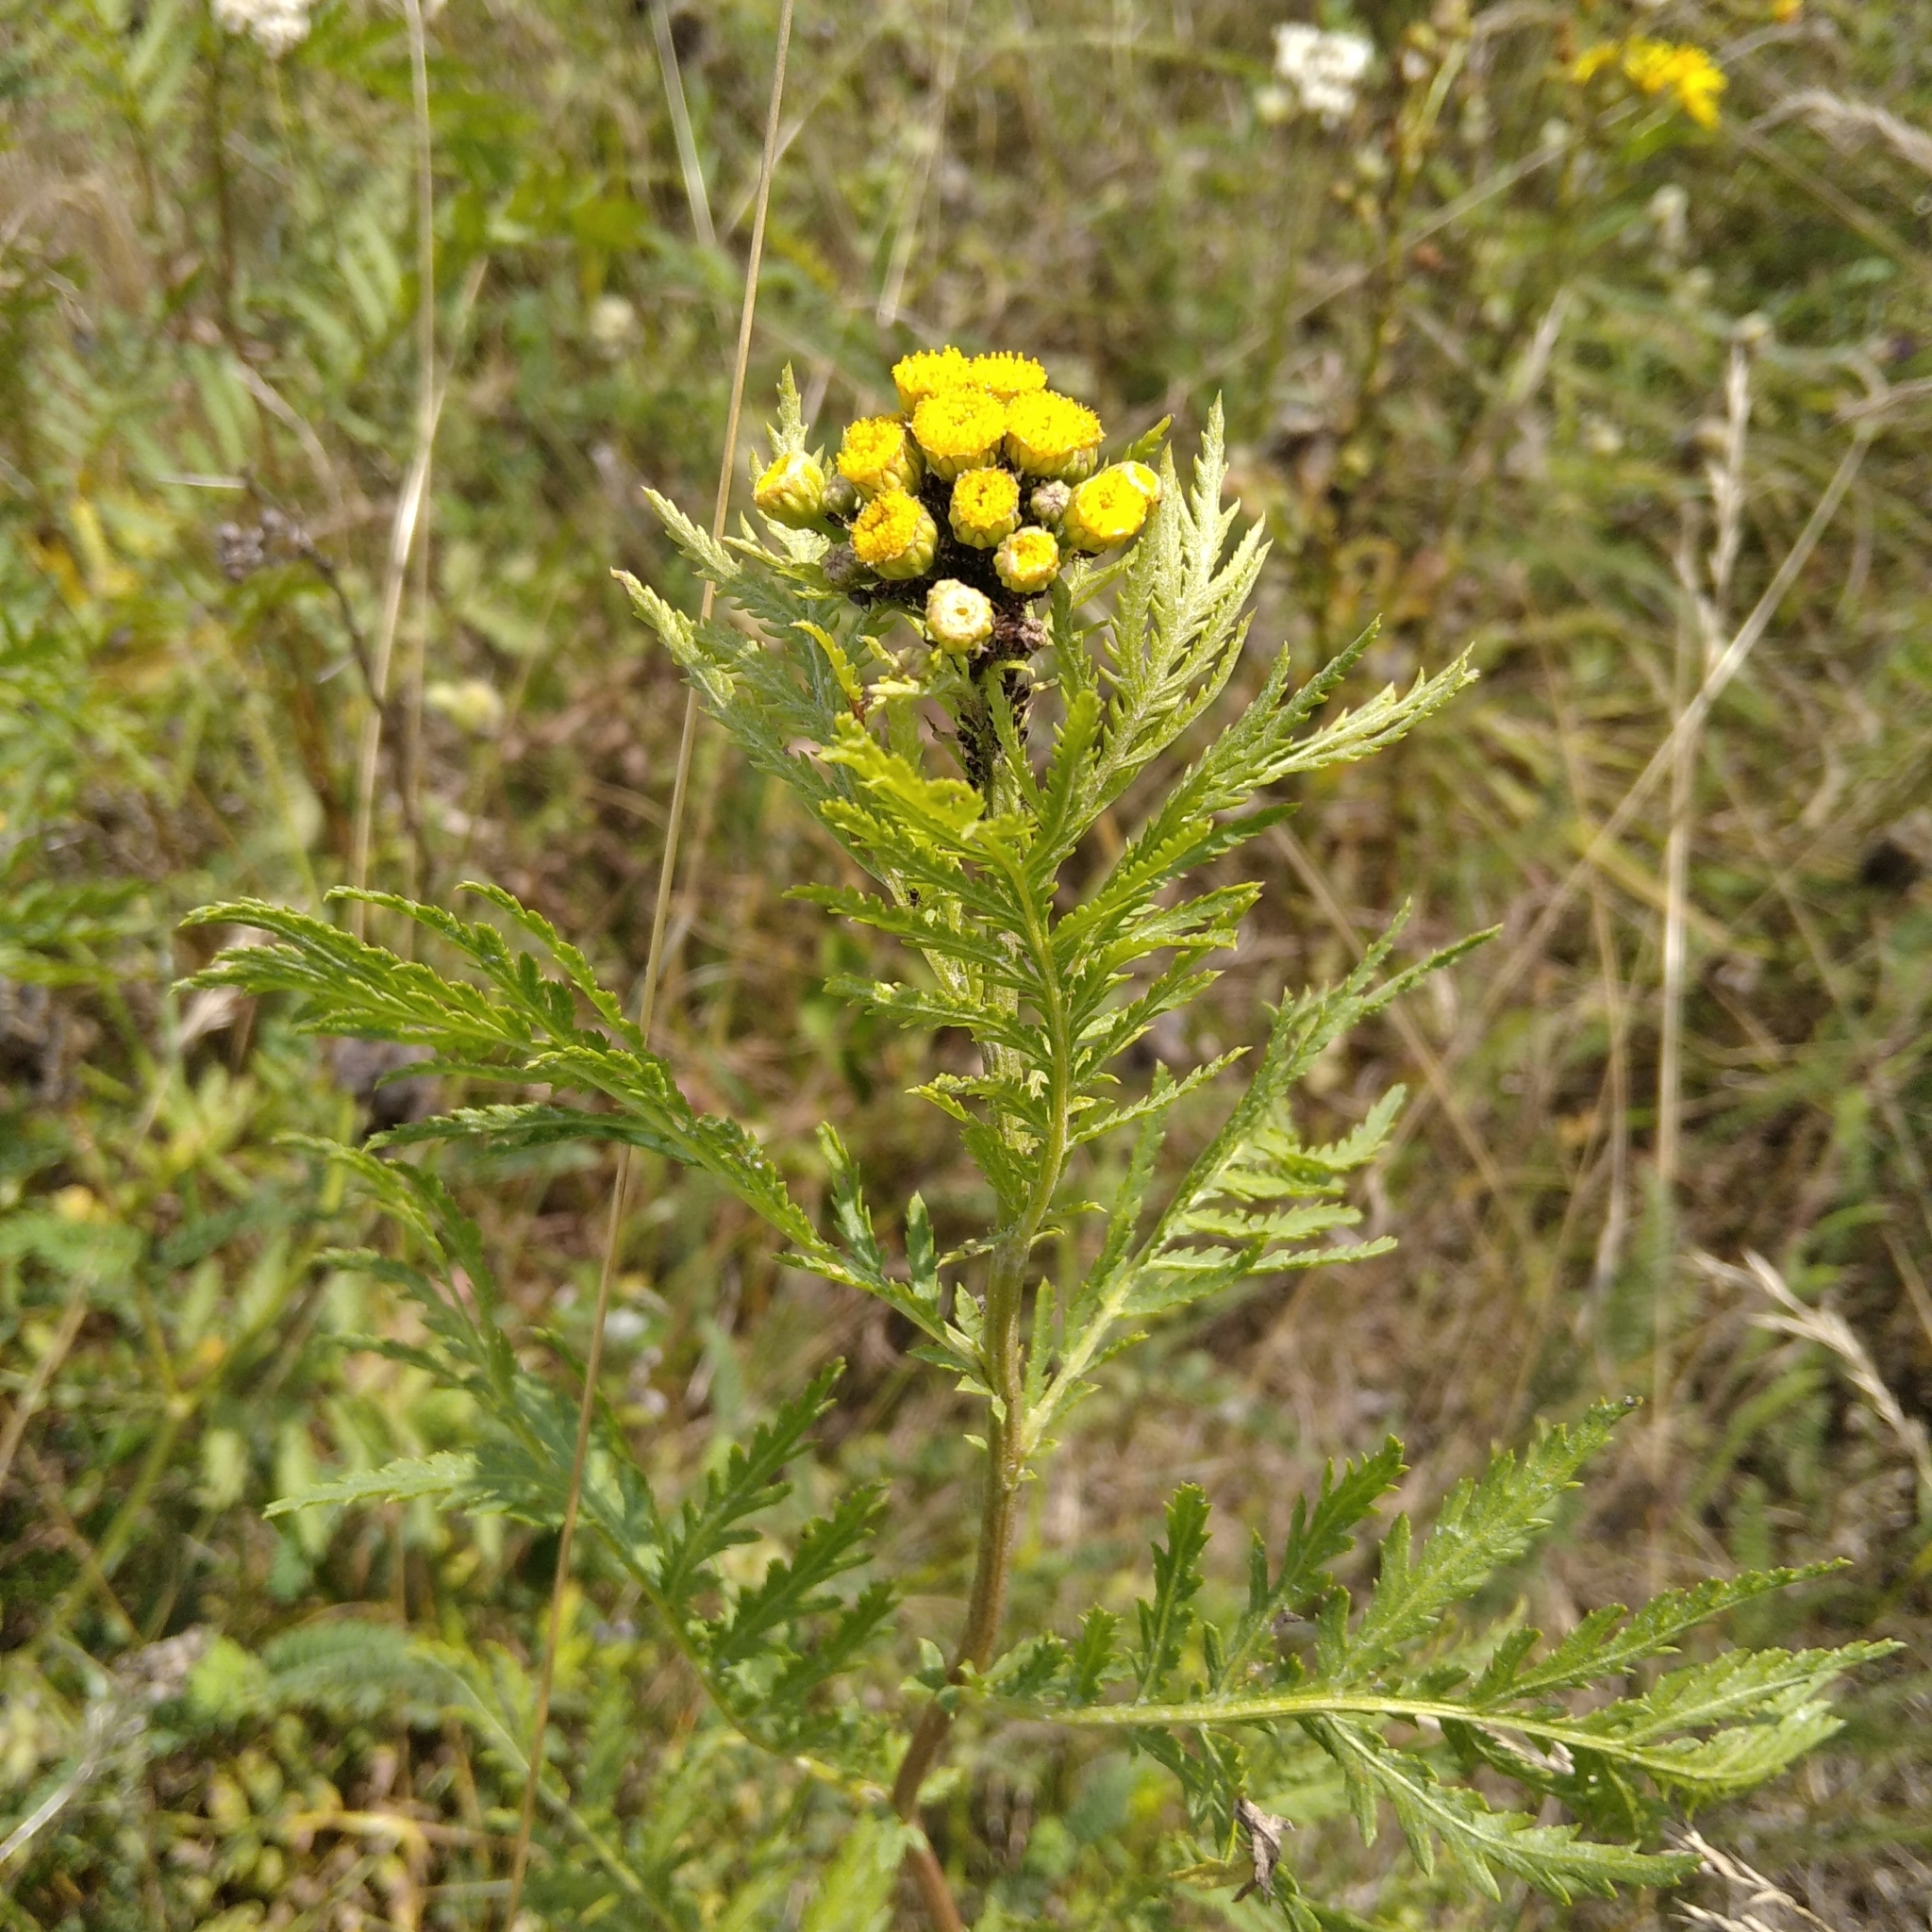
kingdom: Plantae
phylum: Tracheophyta
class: Magnoliopsida
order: Asterales
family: Asteraceae
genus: Tanacetum
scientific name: Tanacetum vulgare
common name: Common tansy
